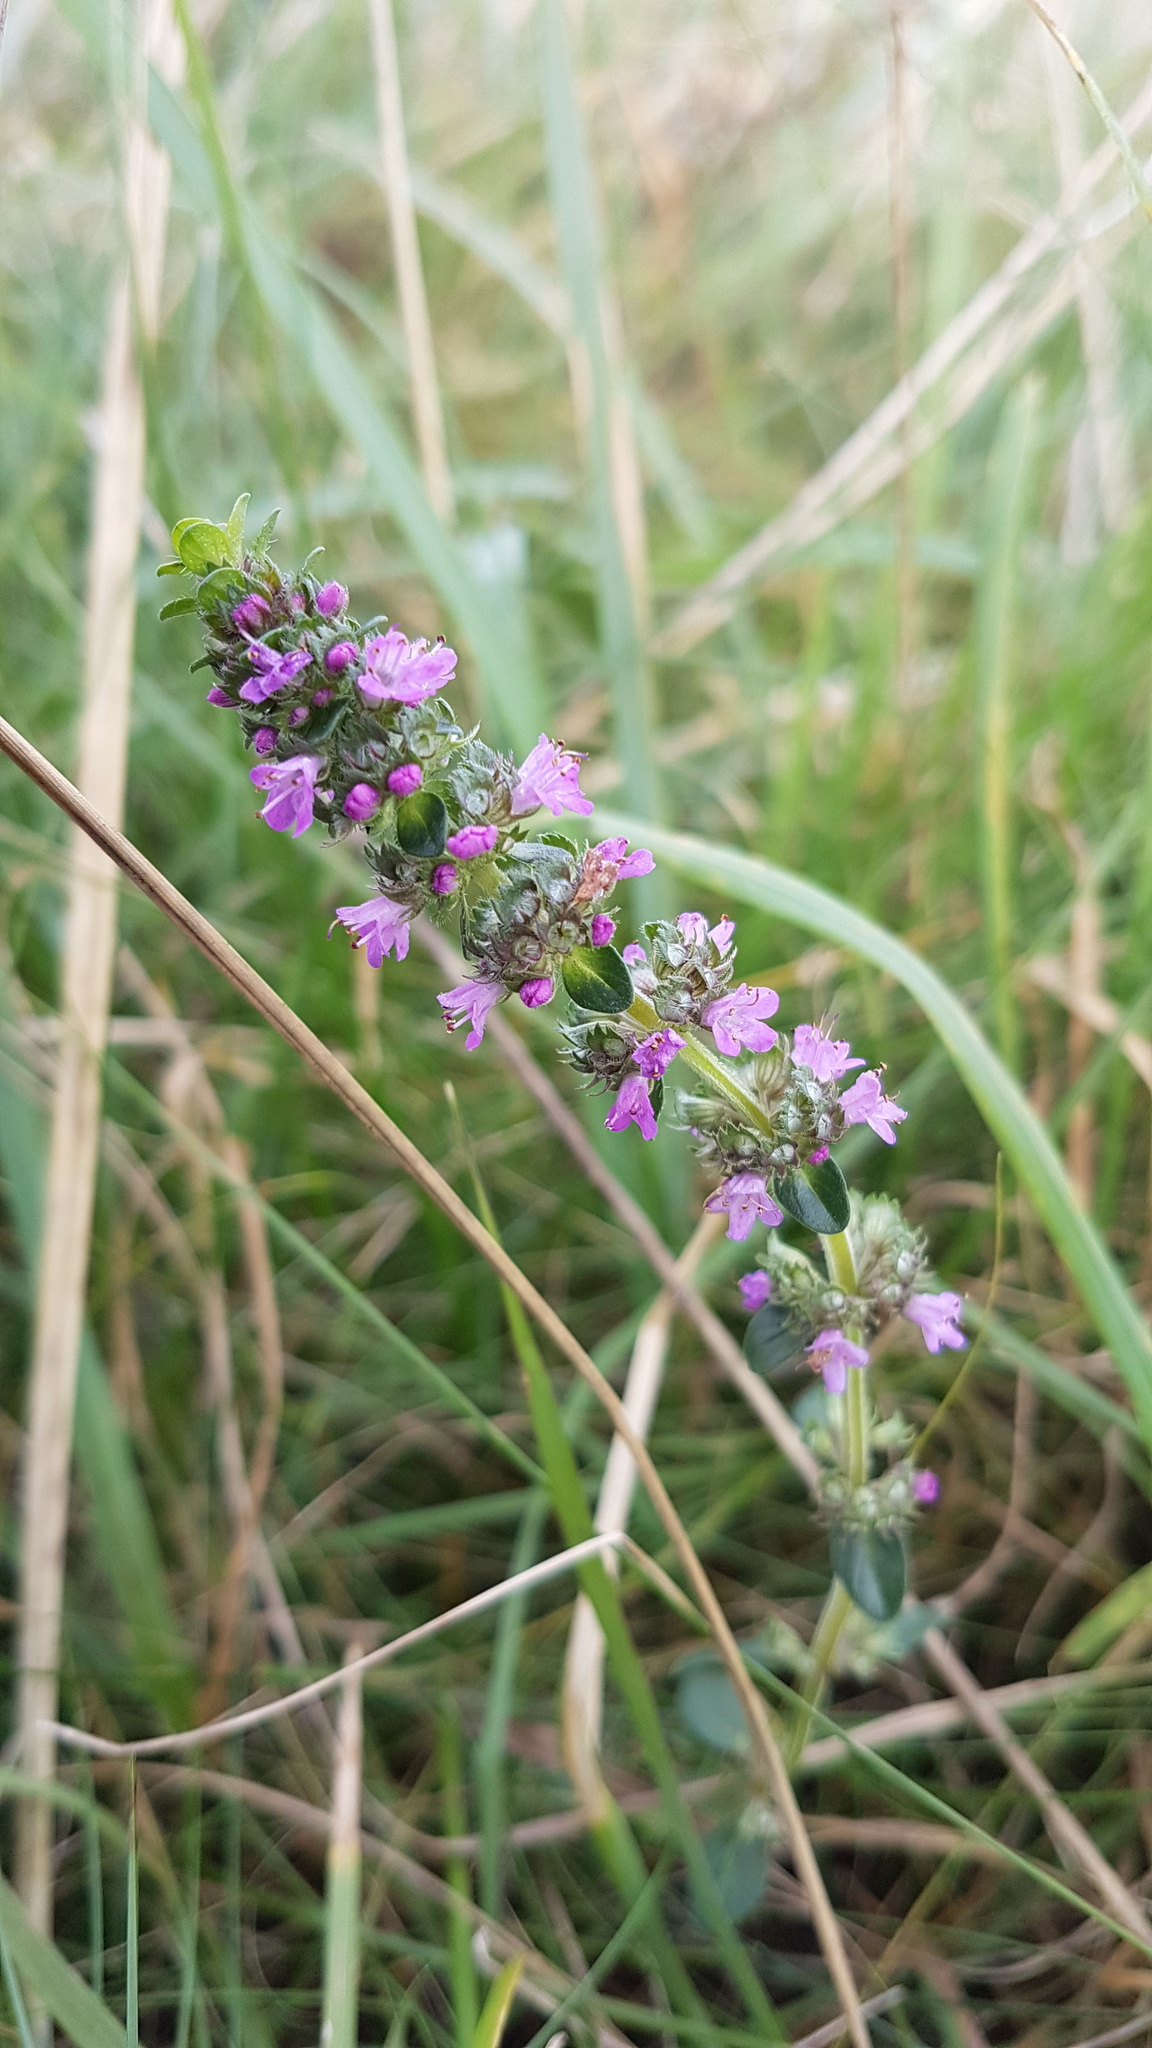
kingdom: Plantae
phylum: Tracheophyta
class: Magnoliopsida
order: Lamiales
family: Lamiaceae
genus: Thymus
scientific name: Thymus pulegioides
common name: Large thyme
